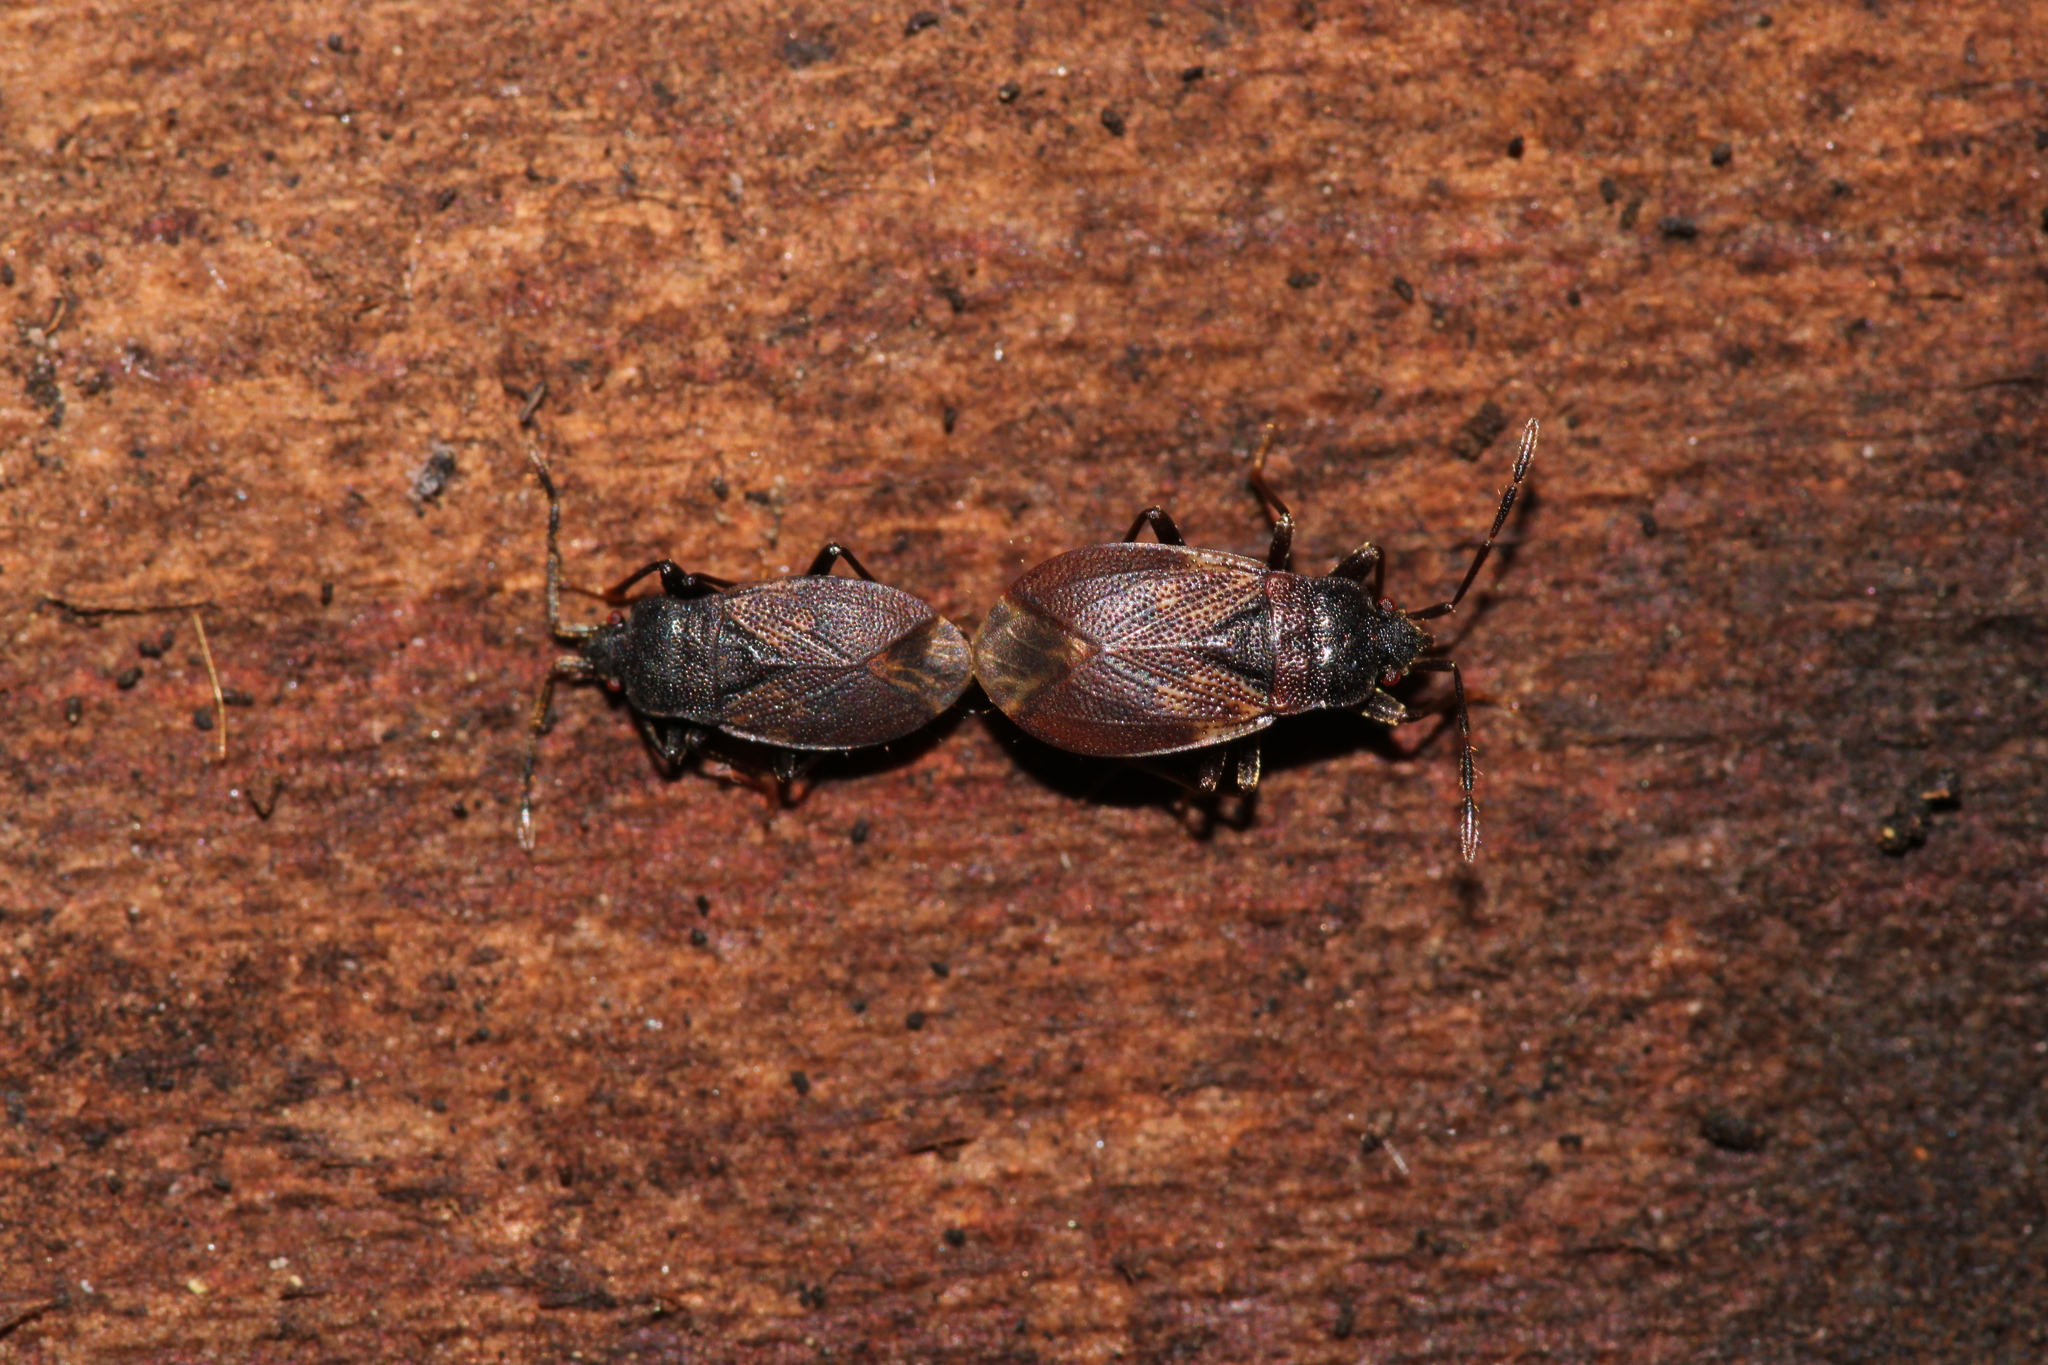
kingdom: Animalia
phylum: Arthropoda
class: Insecta
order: Hemiptera
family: Rhyparochromidae
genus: Drymus
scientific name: Drymus brunneus
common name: Seed bug
